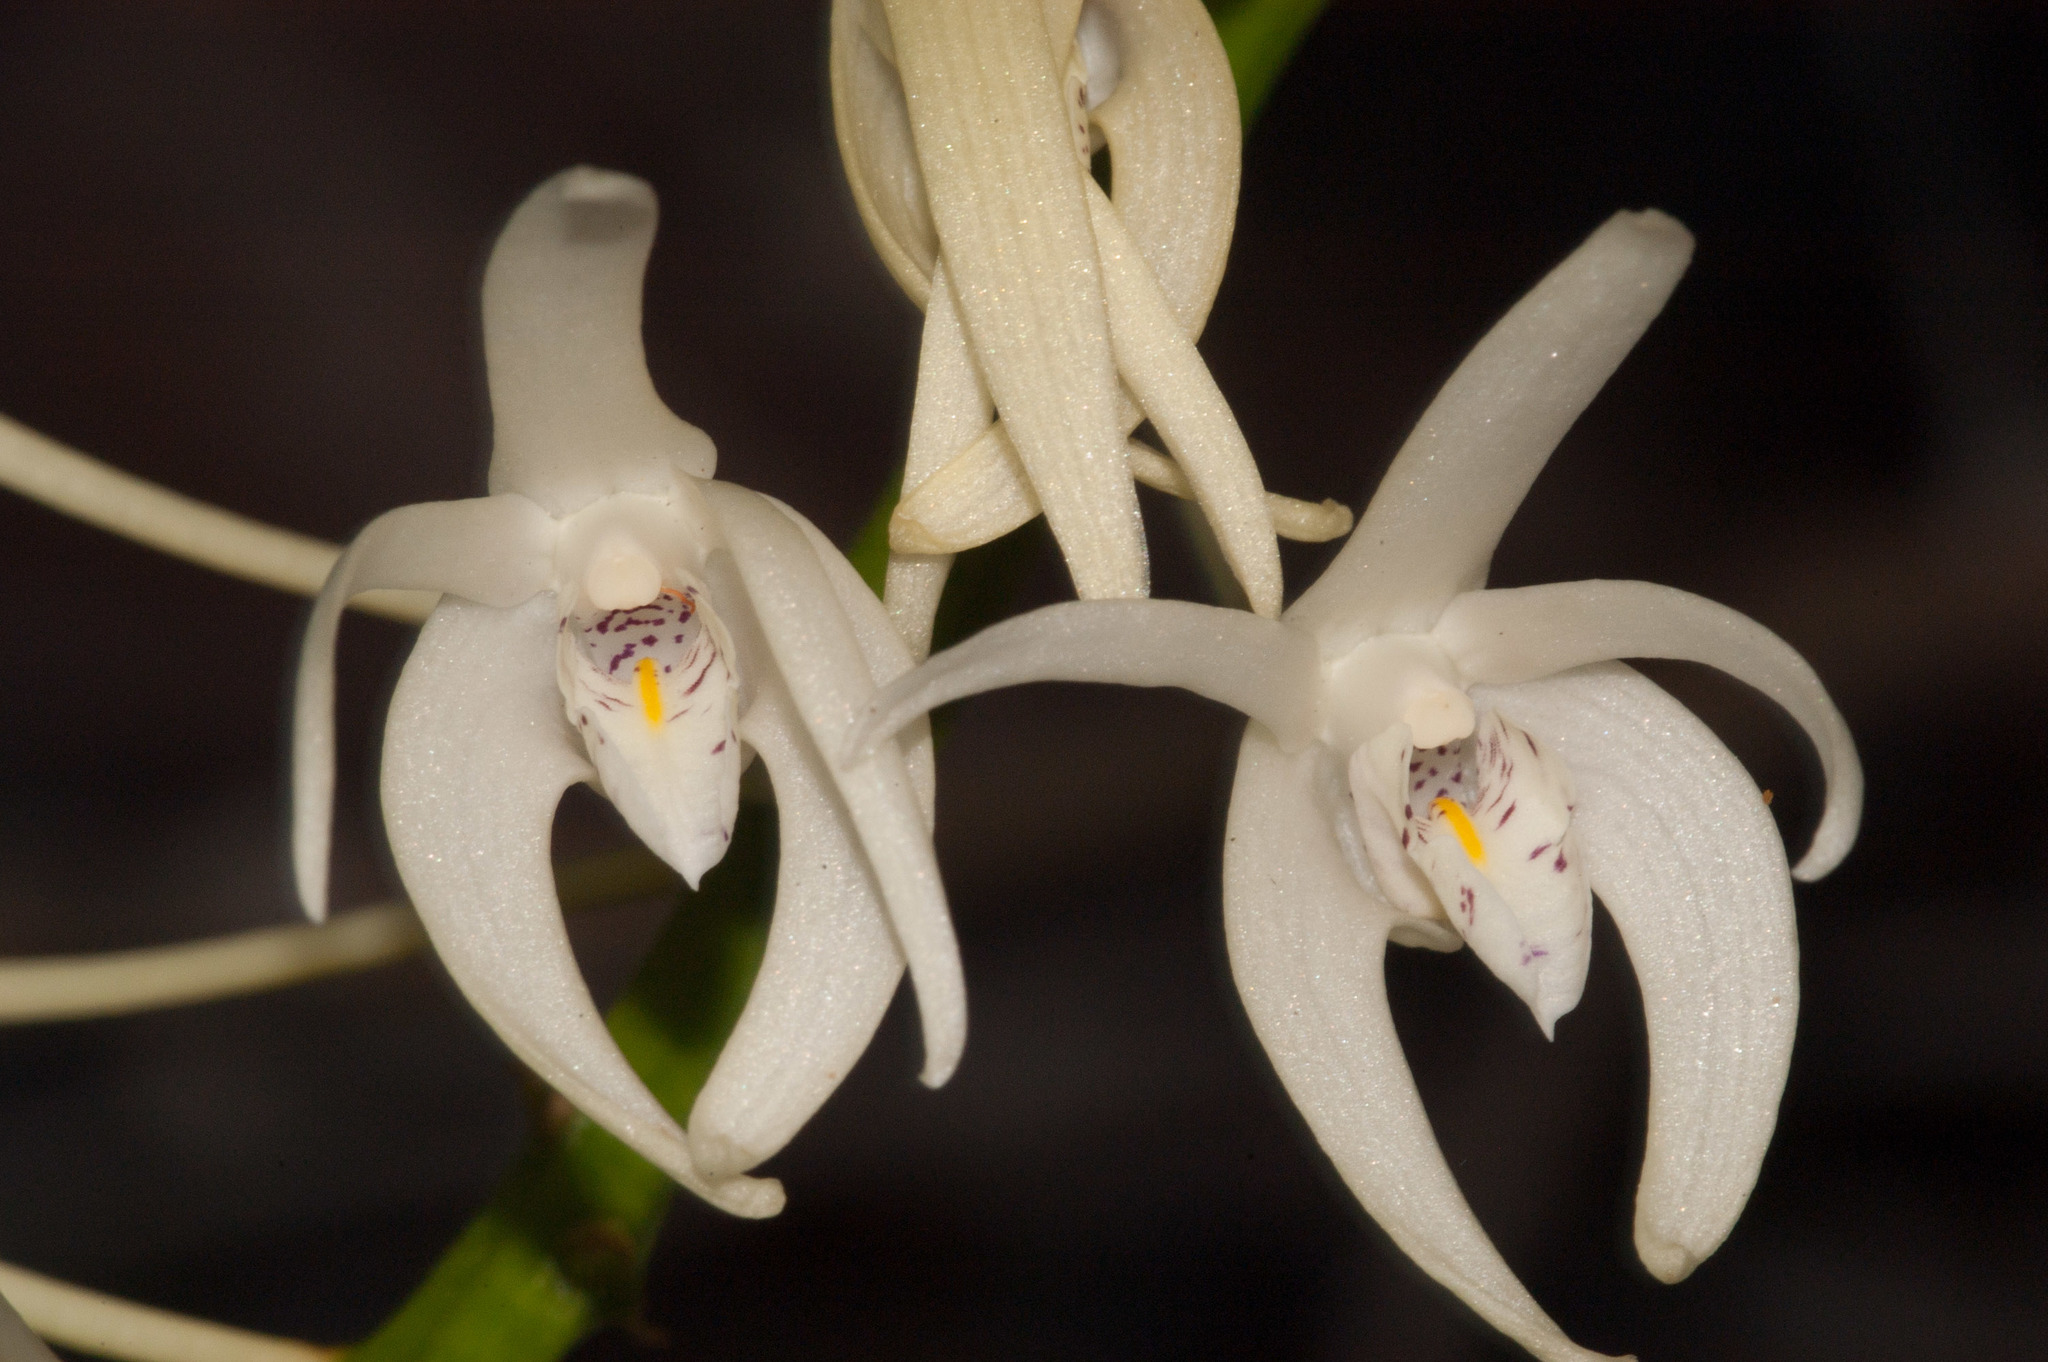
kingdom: Plantae
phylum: Tracheophyta
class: Liliopsida
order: Asparagales
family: Orchidaceae
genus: Dendrobium
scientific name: Dendrobium speciosum
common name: Rock-lily
